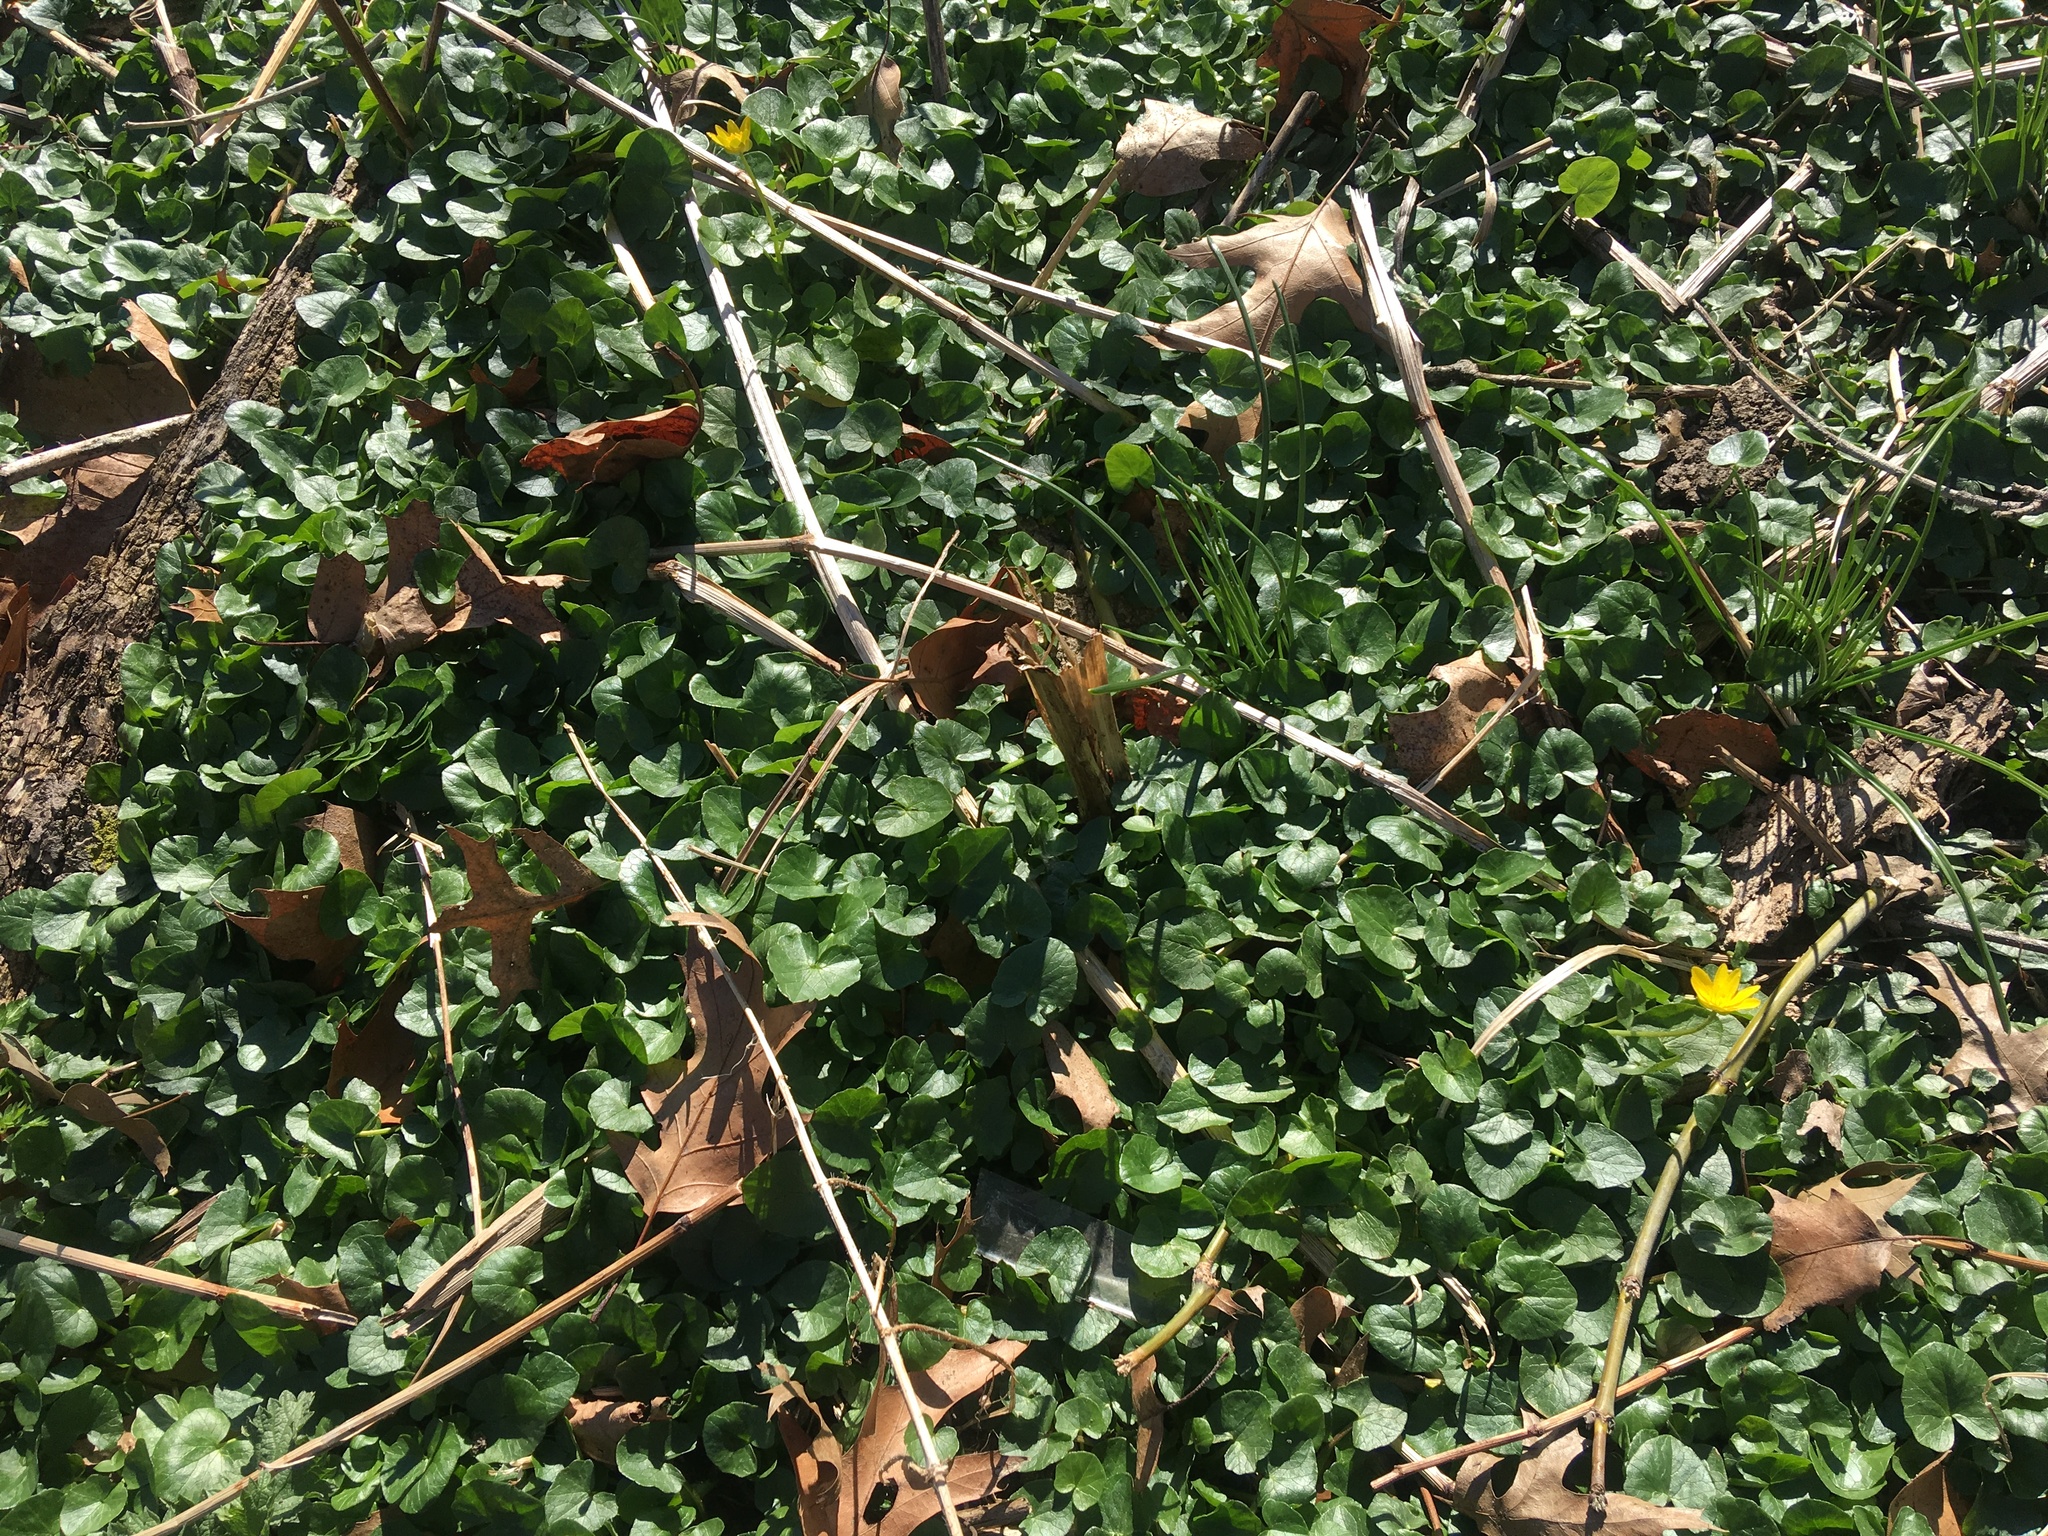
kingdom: Plantae
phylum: Tracheophyta
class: Magnoliopsida
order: Ranunculales
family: Ranunculaceae
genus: Ficaria
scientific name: Ficaria verna
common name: Lesser celandine
